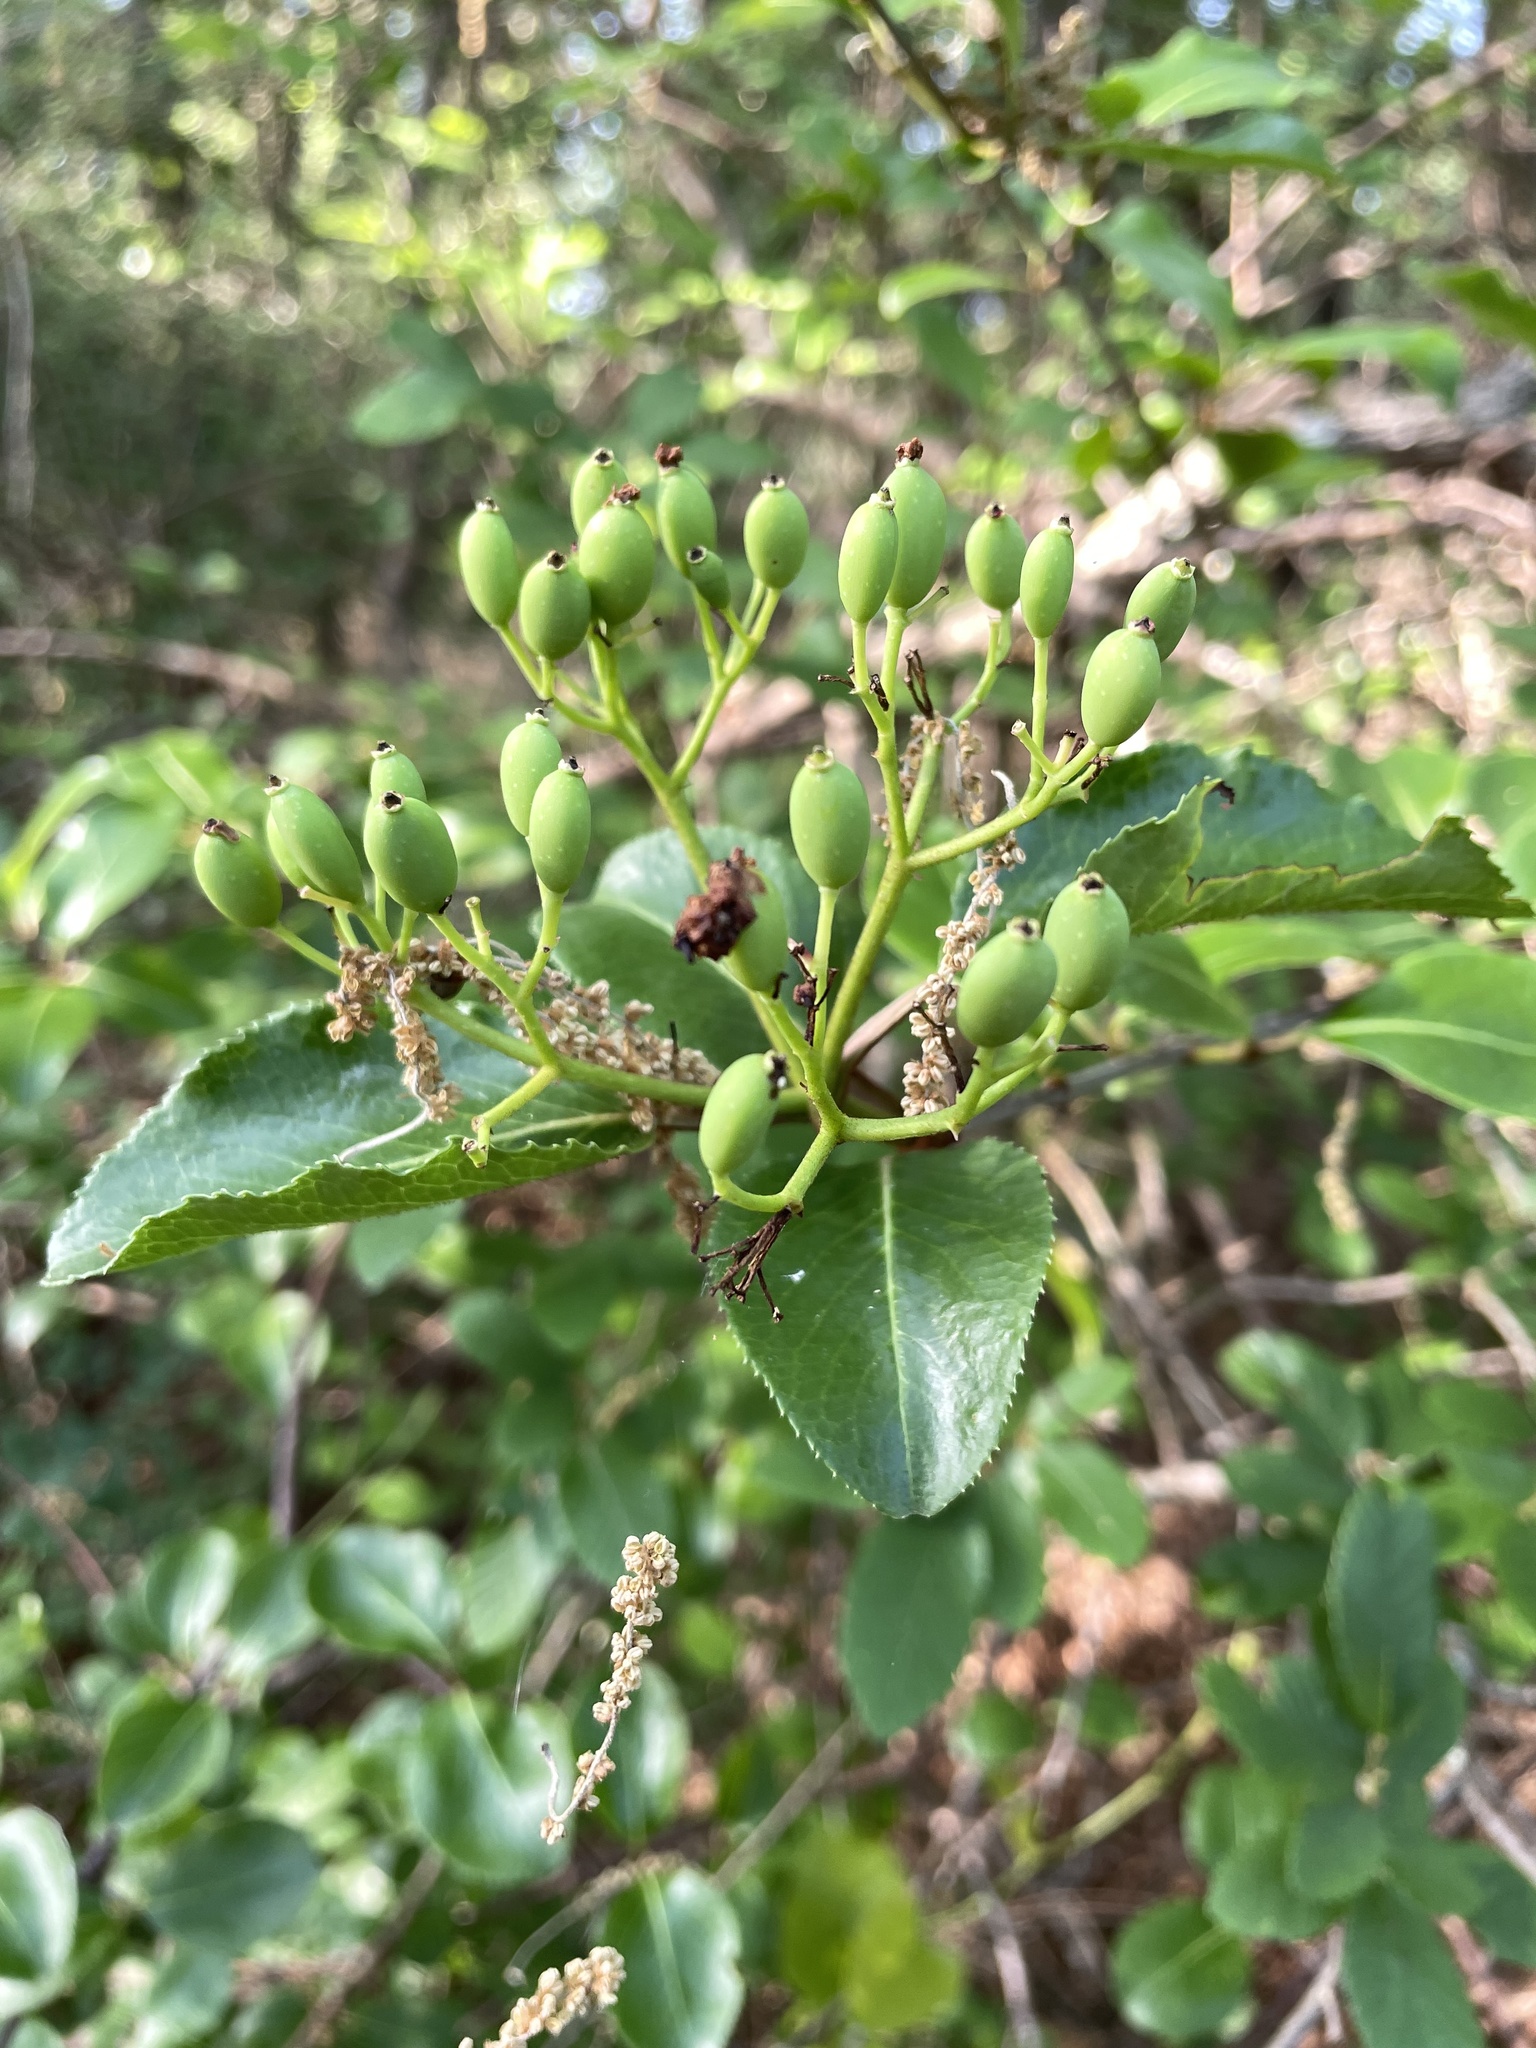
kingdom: Plantae
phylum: Tracheophyta
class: Magnoliopsida
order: Dipsacales
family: Viburnaceae
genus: Viburnum
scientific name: Viburnum rufidulum
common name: Blue haw
